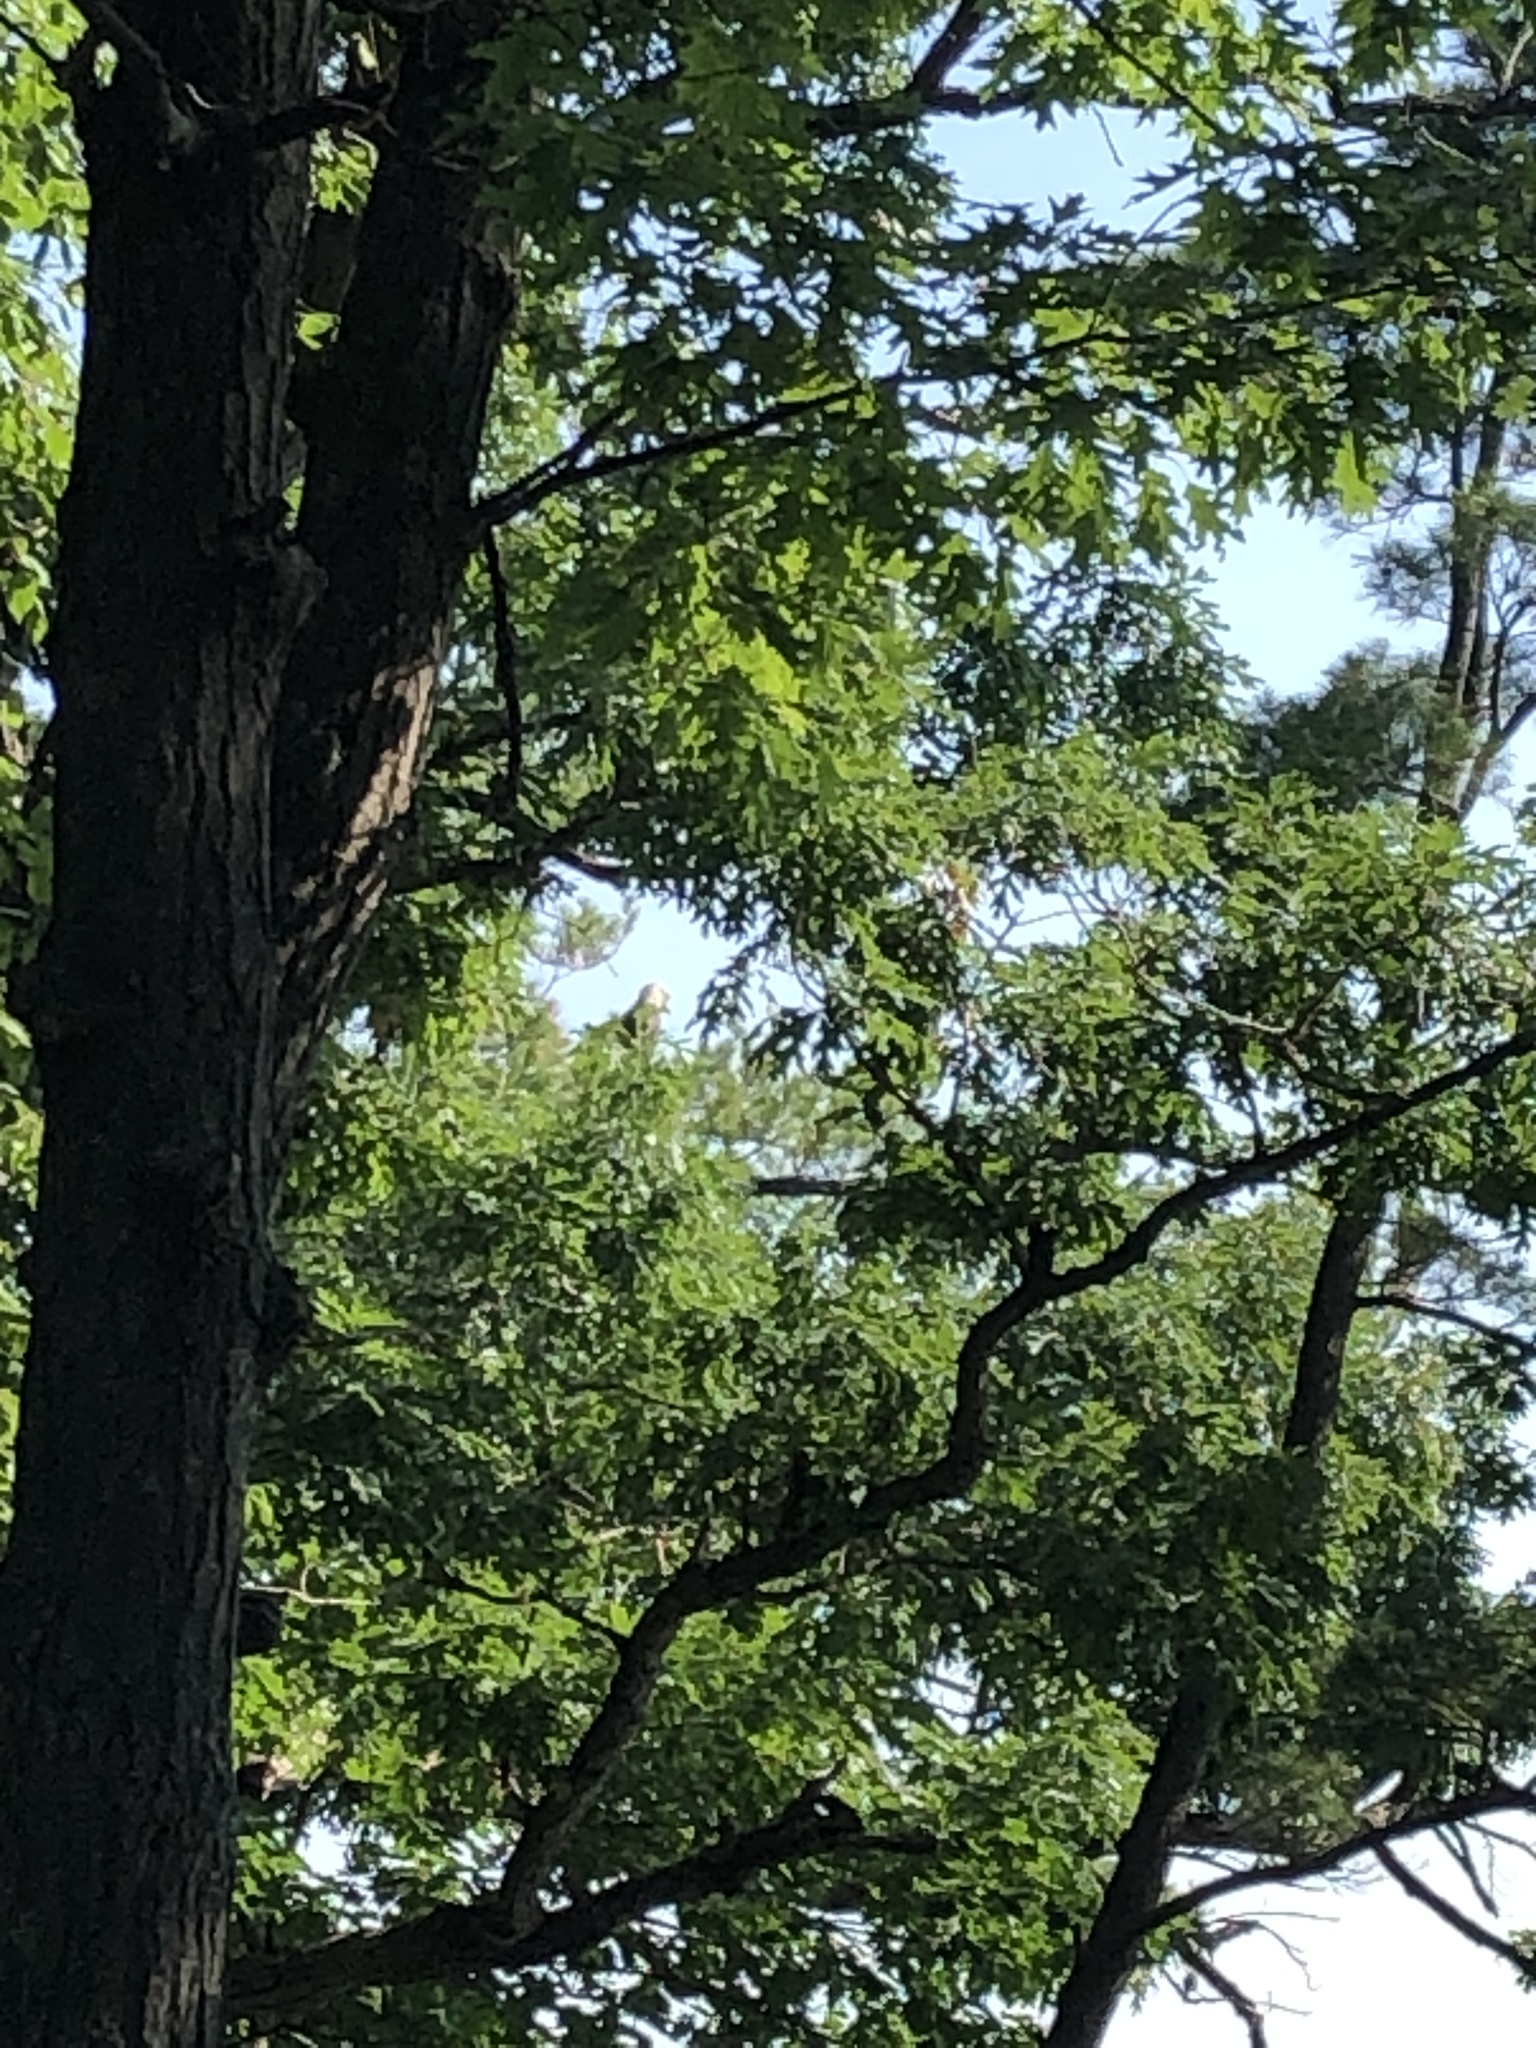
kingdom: Animalia
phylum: Chordata
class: Aves
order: Accipitriformes
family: Accipitridae
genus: Haliaeetus
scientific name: Haliaeetus leucocephalus
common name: Bald eagle
